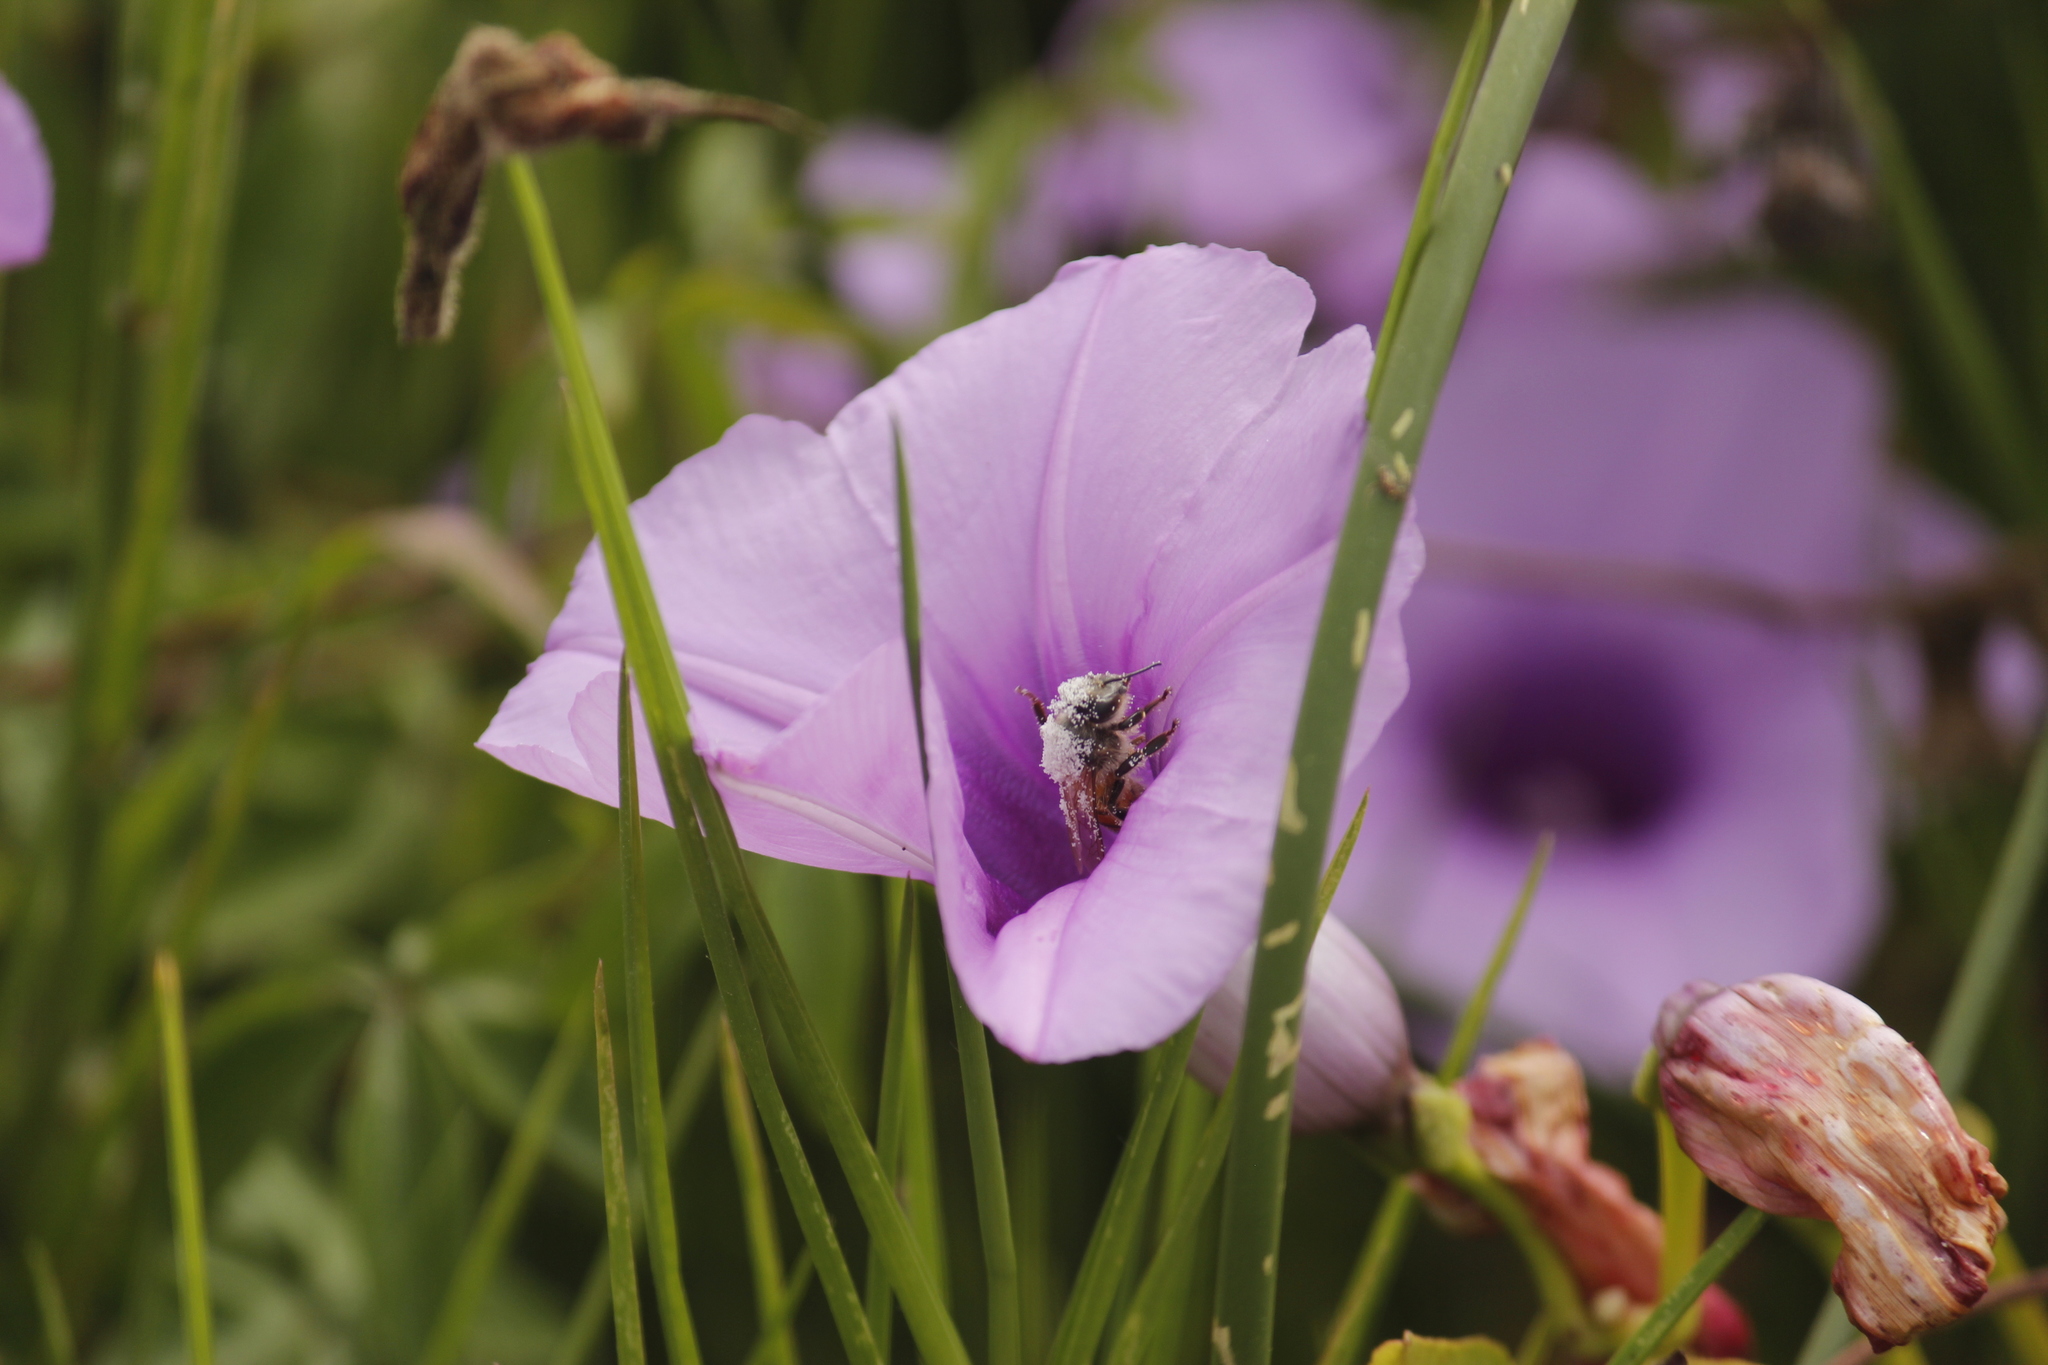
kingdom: Animalia
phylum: Arthropoda
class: Insecta
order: Hymenoptera
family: Apidae
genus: Apis
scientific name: Apis mellifera
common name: Honey bee
